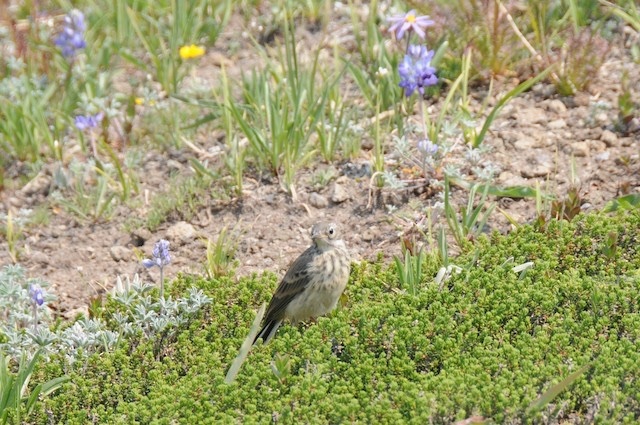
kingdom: Animalia
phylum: Chordata
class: Aves
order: Passeriformes
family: Motacillidae
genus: Anthus
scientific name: Anthus rubescens
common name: Buff-bellied pipit
